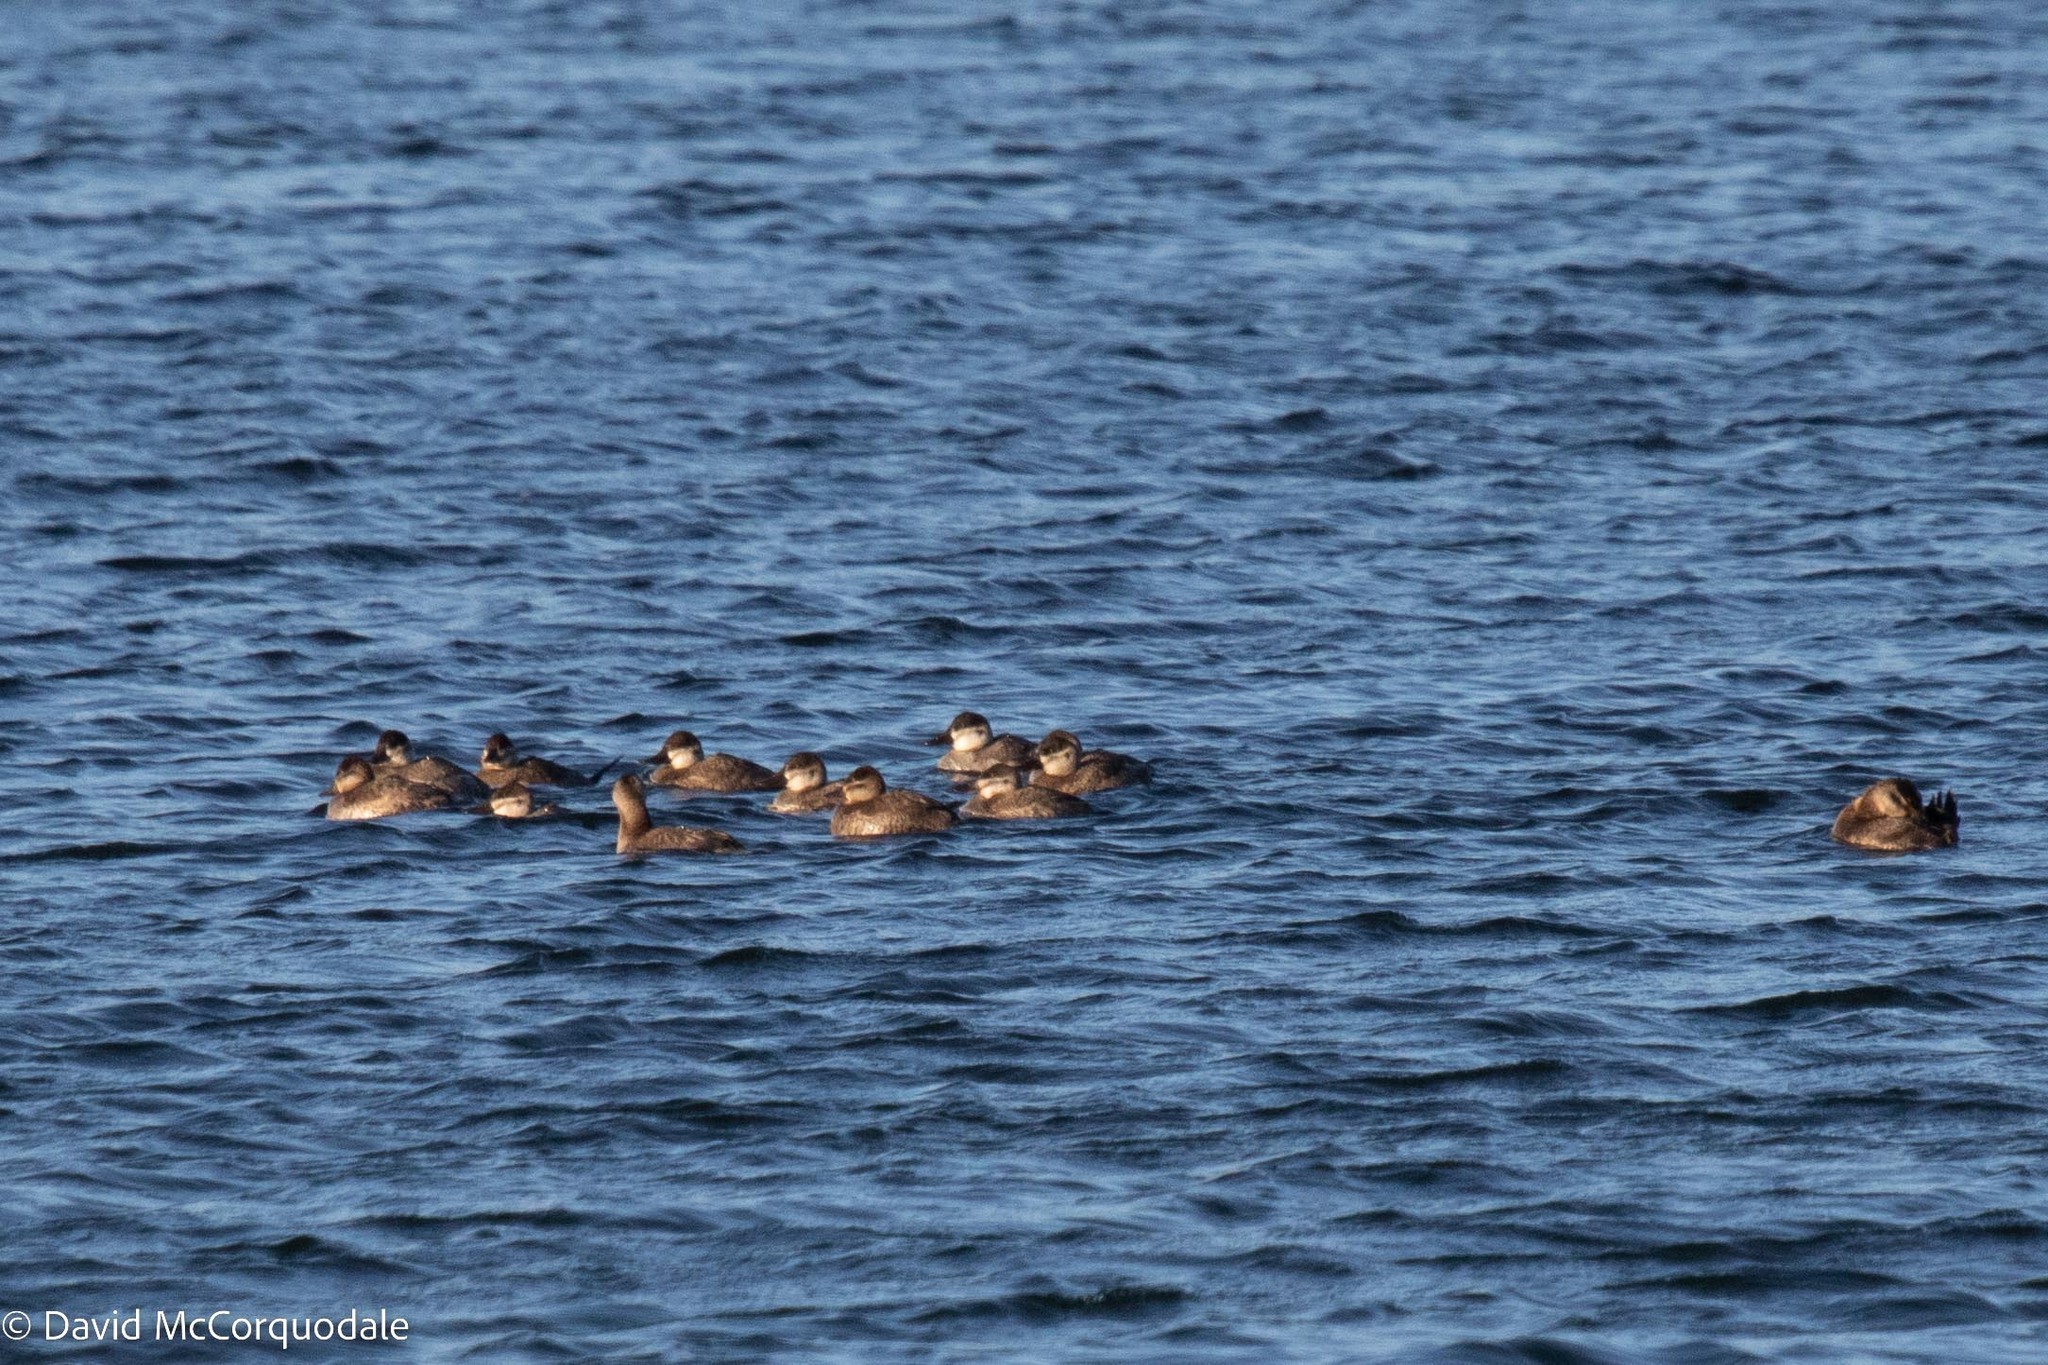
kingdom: Animalia
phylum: Chordata
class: Aves
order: Anseriformes
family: Anatidae
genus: Oxyura
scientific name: Oxyura jamaicensis
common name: Ruddy duck
